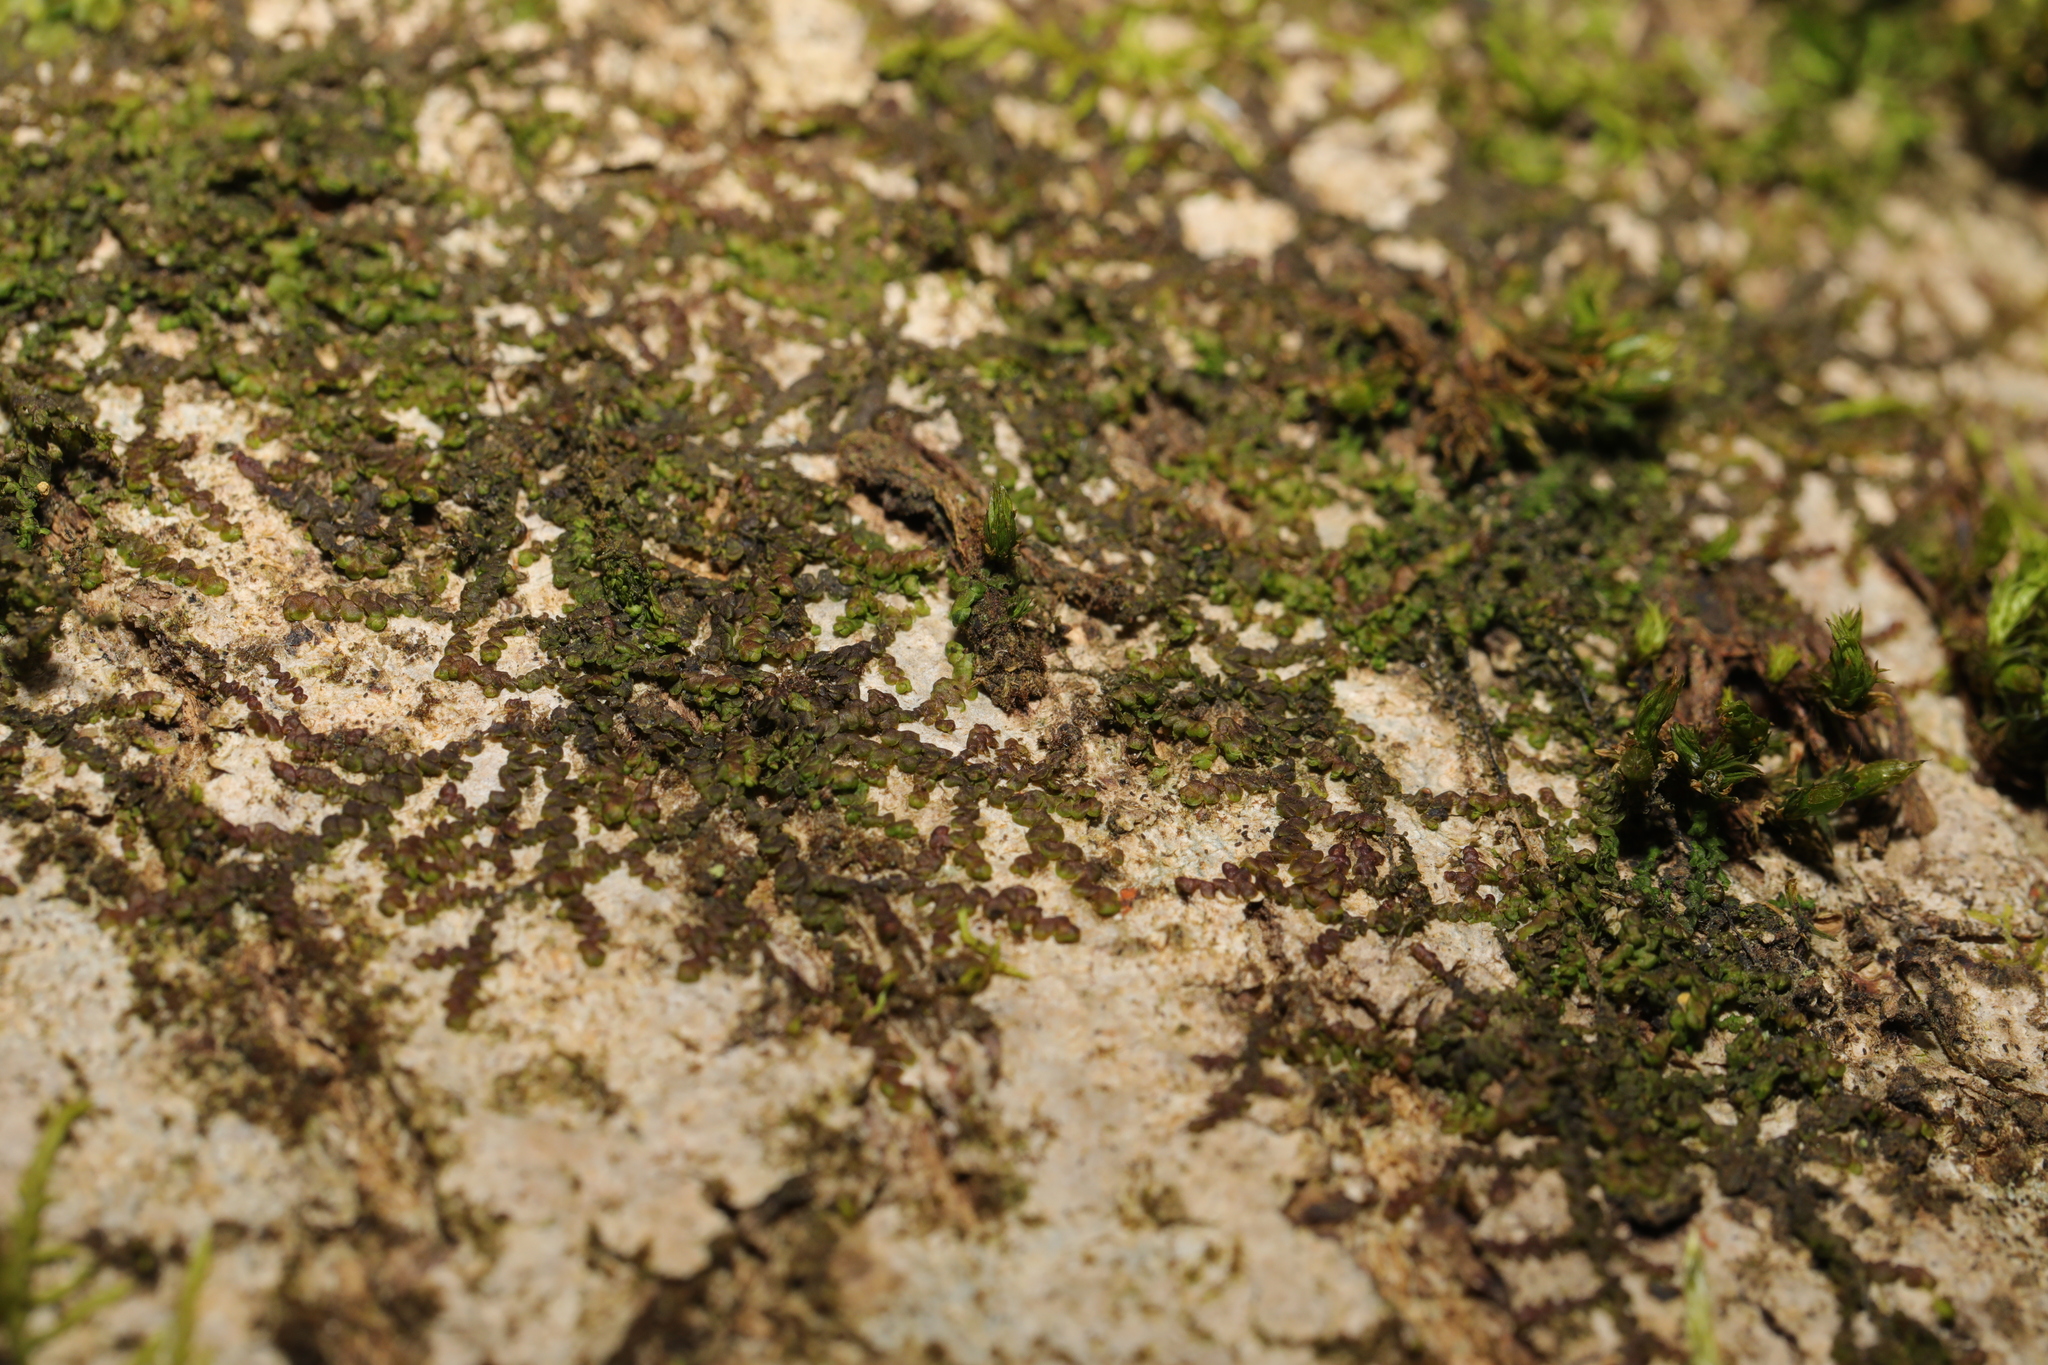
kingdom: Plantae
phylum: Marchantiophyta
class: Jungermanniopsida
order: Porellales
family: Frullaniaceae
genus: Frullania
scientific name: Frullania dilatata
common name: Dilated scalewort
